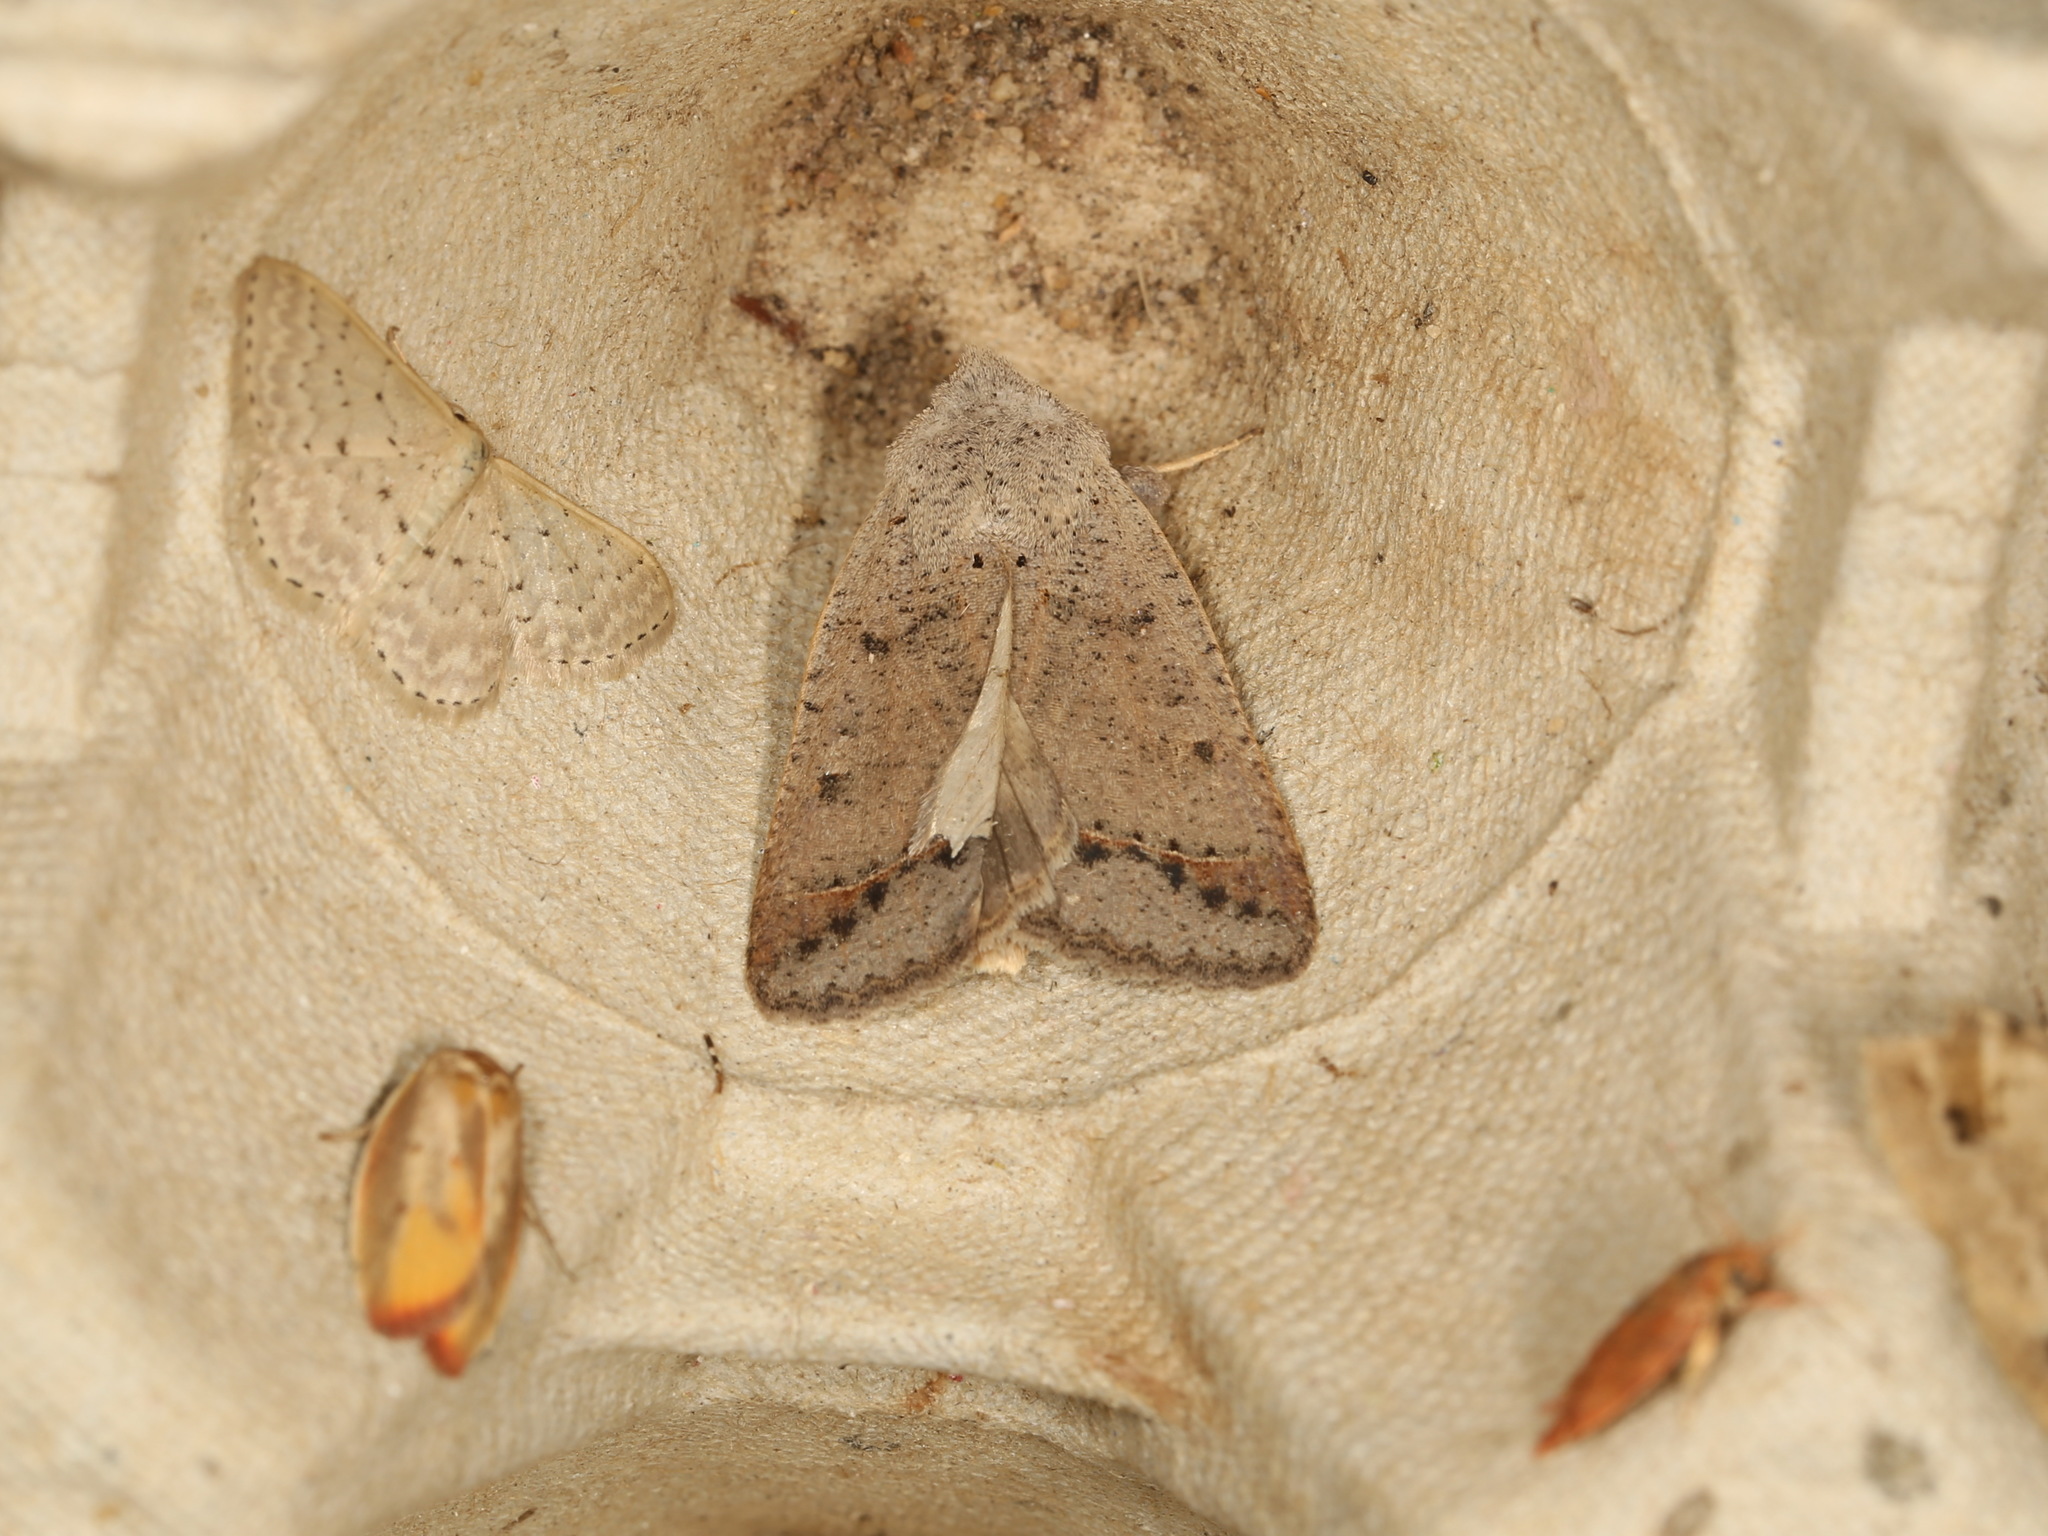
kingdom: Animalia
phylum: Arthropoda
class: Insecta
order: Lepidoptera
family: Geometridae
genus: Idaea
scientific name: Idaea philocosma
